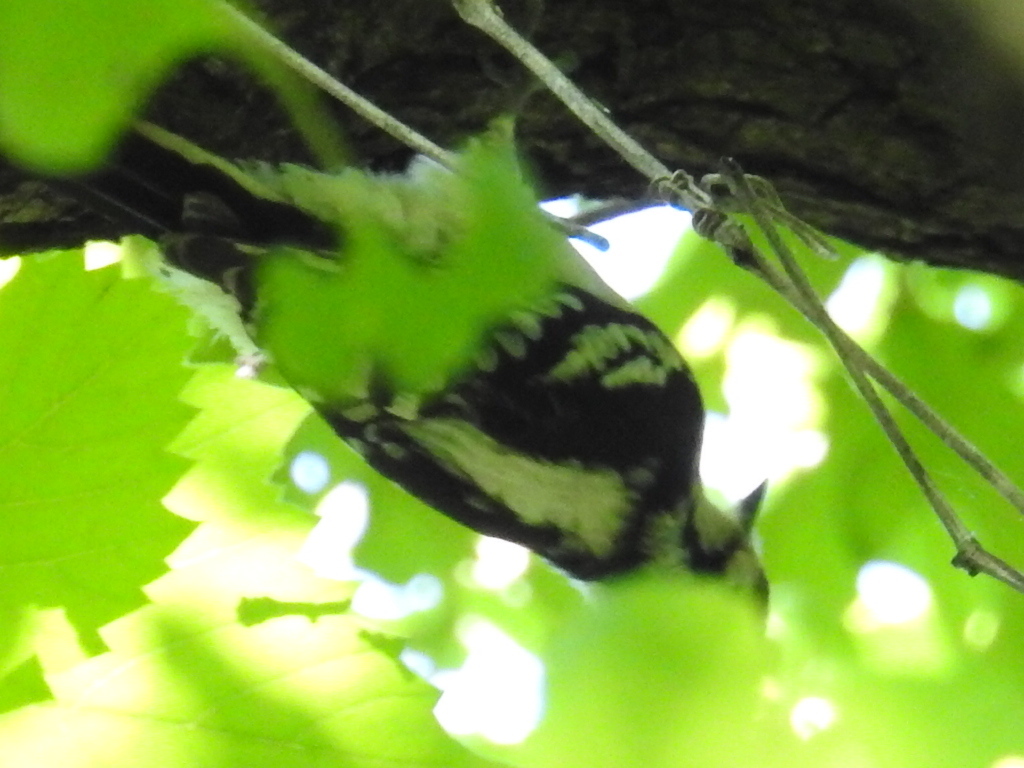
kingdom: Animalia
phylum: Chordata
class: Aves
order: Piciformes
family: Picidae
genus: Dryobates
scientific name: Dryobates pubescens
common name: Downy woodpecker
